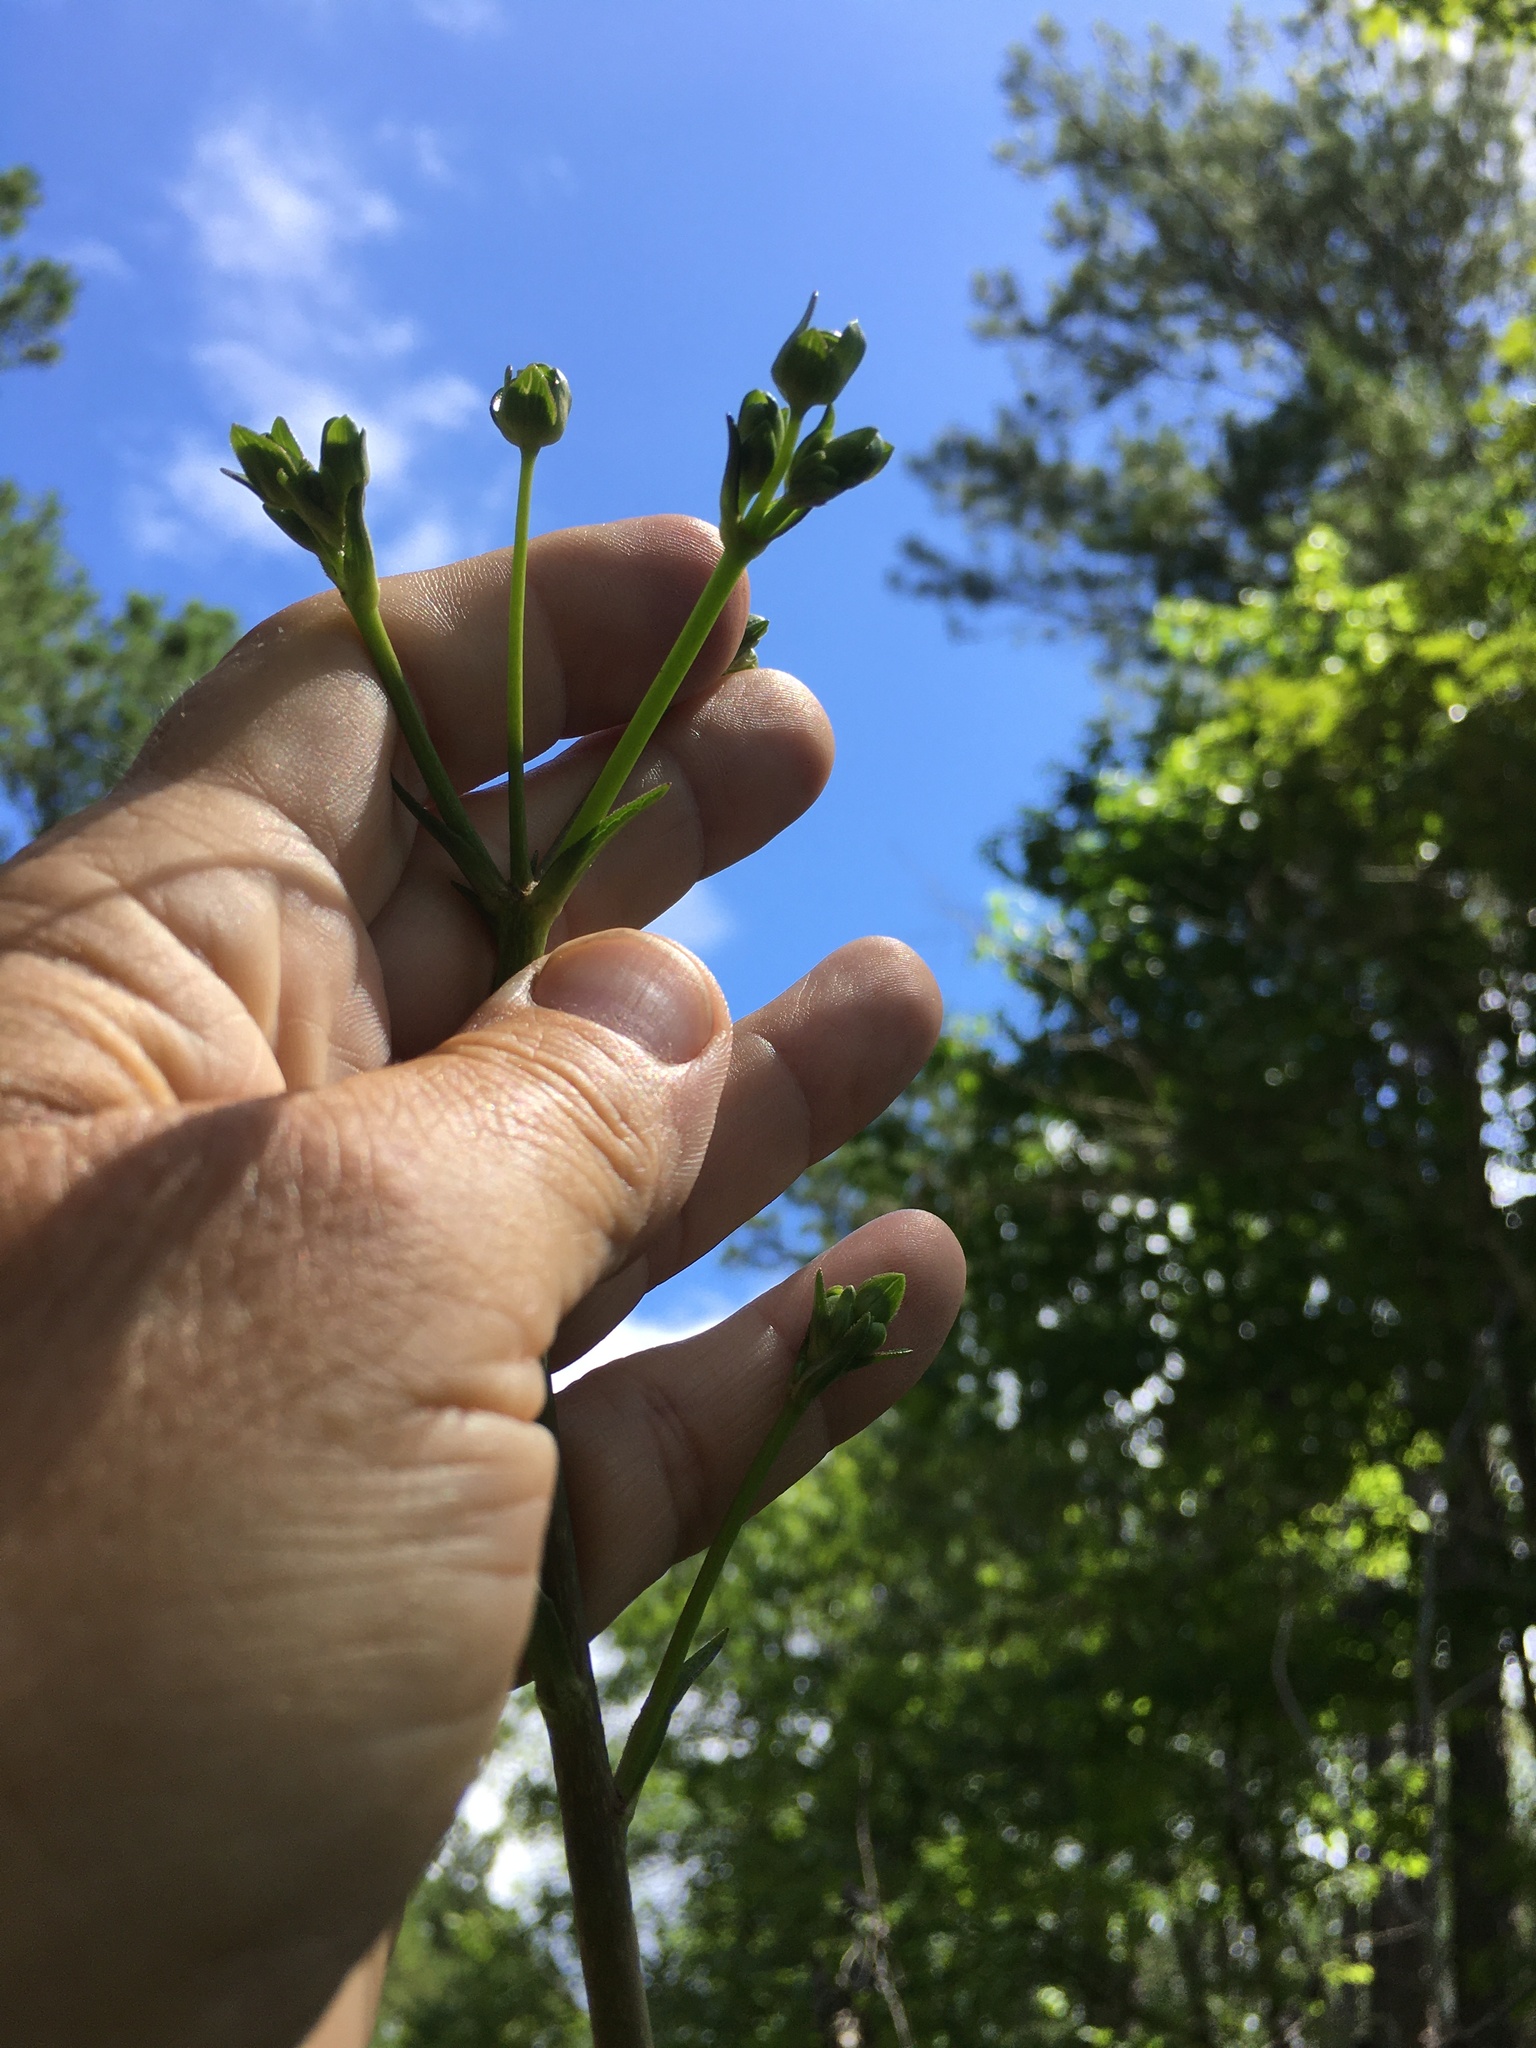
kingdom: Plantae
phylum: Tracheophyta
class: Magnoliopsida
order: Asterales
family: Asteraceae
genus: Silphium
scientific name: Silphium compositum
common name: Lesser basal-leaf rosinweed
